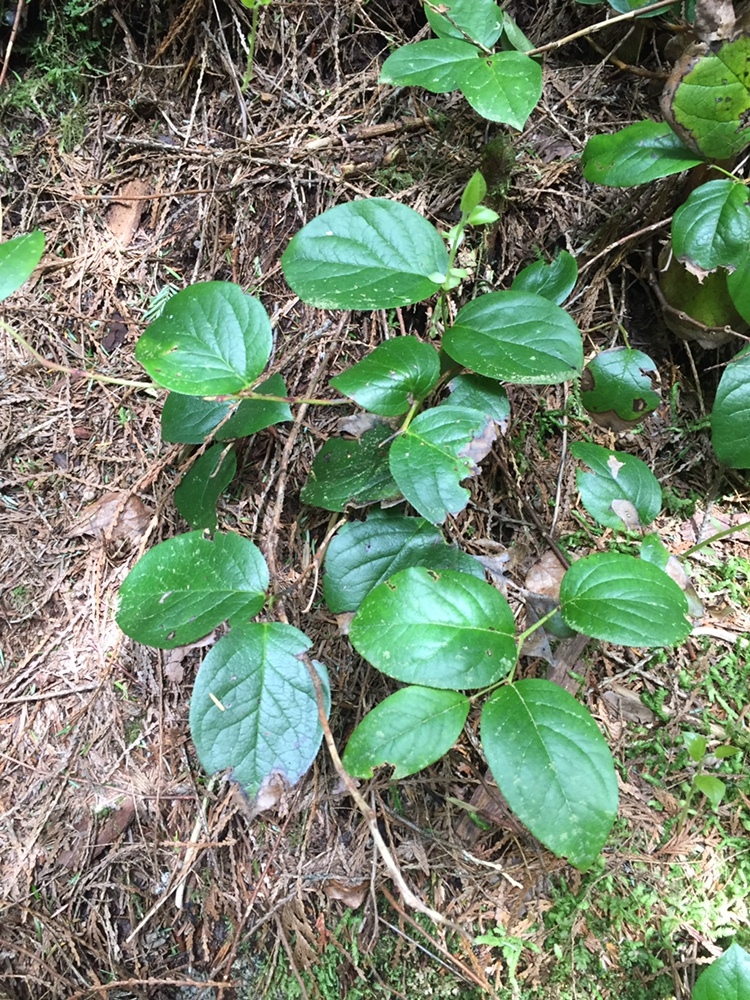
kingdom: Plantae
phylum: Tracheophyta
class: Magnoliopsida
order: Ericales
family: Ericaceae
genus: Gaultheria
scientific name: Gaultheria shallon
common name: Shallon
